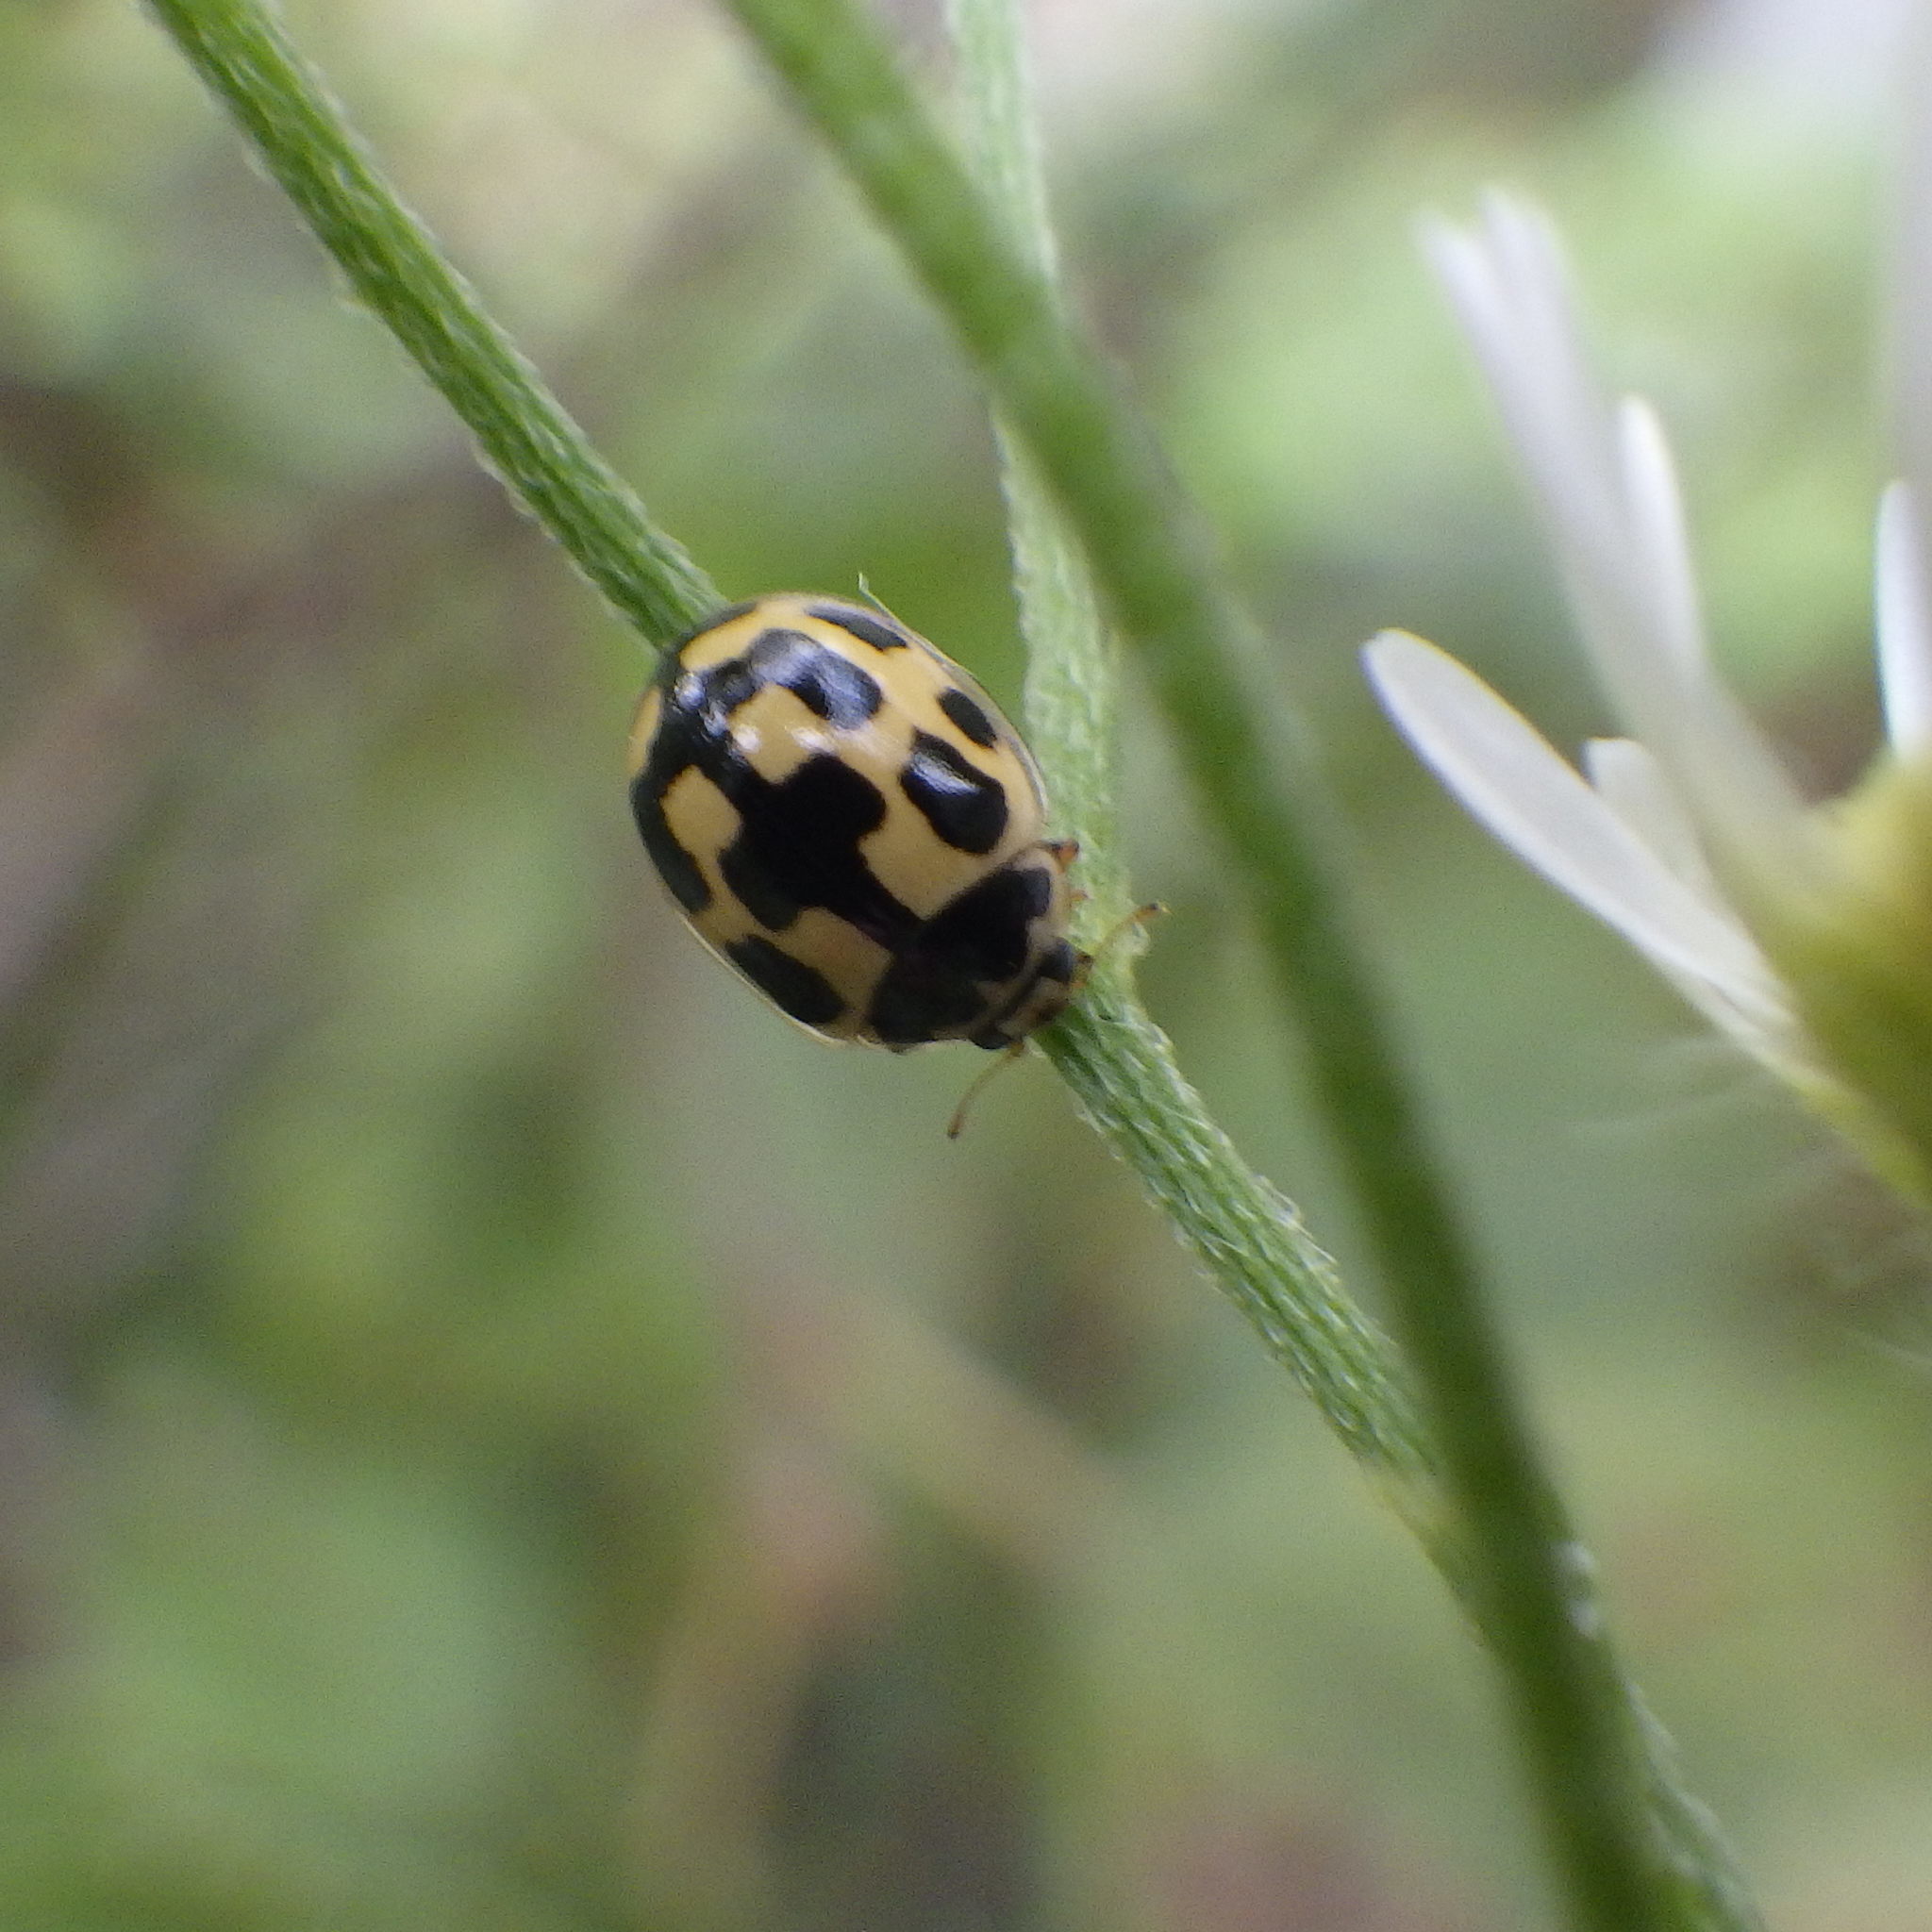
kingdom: Animalia
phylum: Arthropoda
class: Insecta
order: Coleoptera
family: Coccinellidae
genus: Propylaea
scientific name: Propylaea quatuordecimpunctata
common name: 14-spotted ladybird beetle
